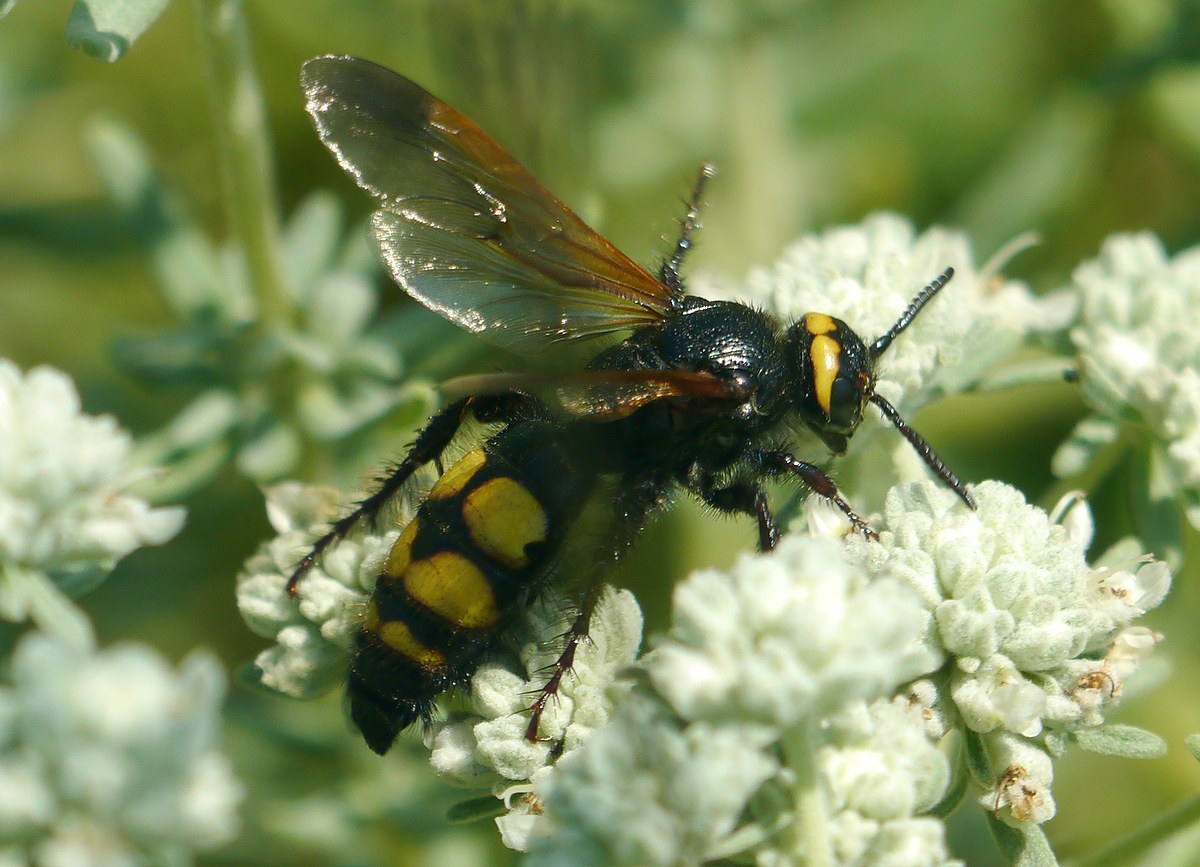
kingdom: Animalia
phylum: Arthropoda
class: Insecta
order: Hymenoptera
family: Scoliidae
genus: Scolia
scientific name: Scolia fuciformis
